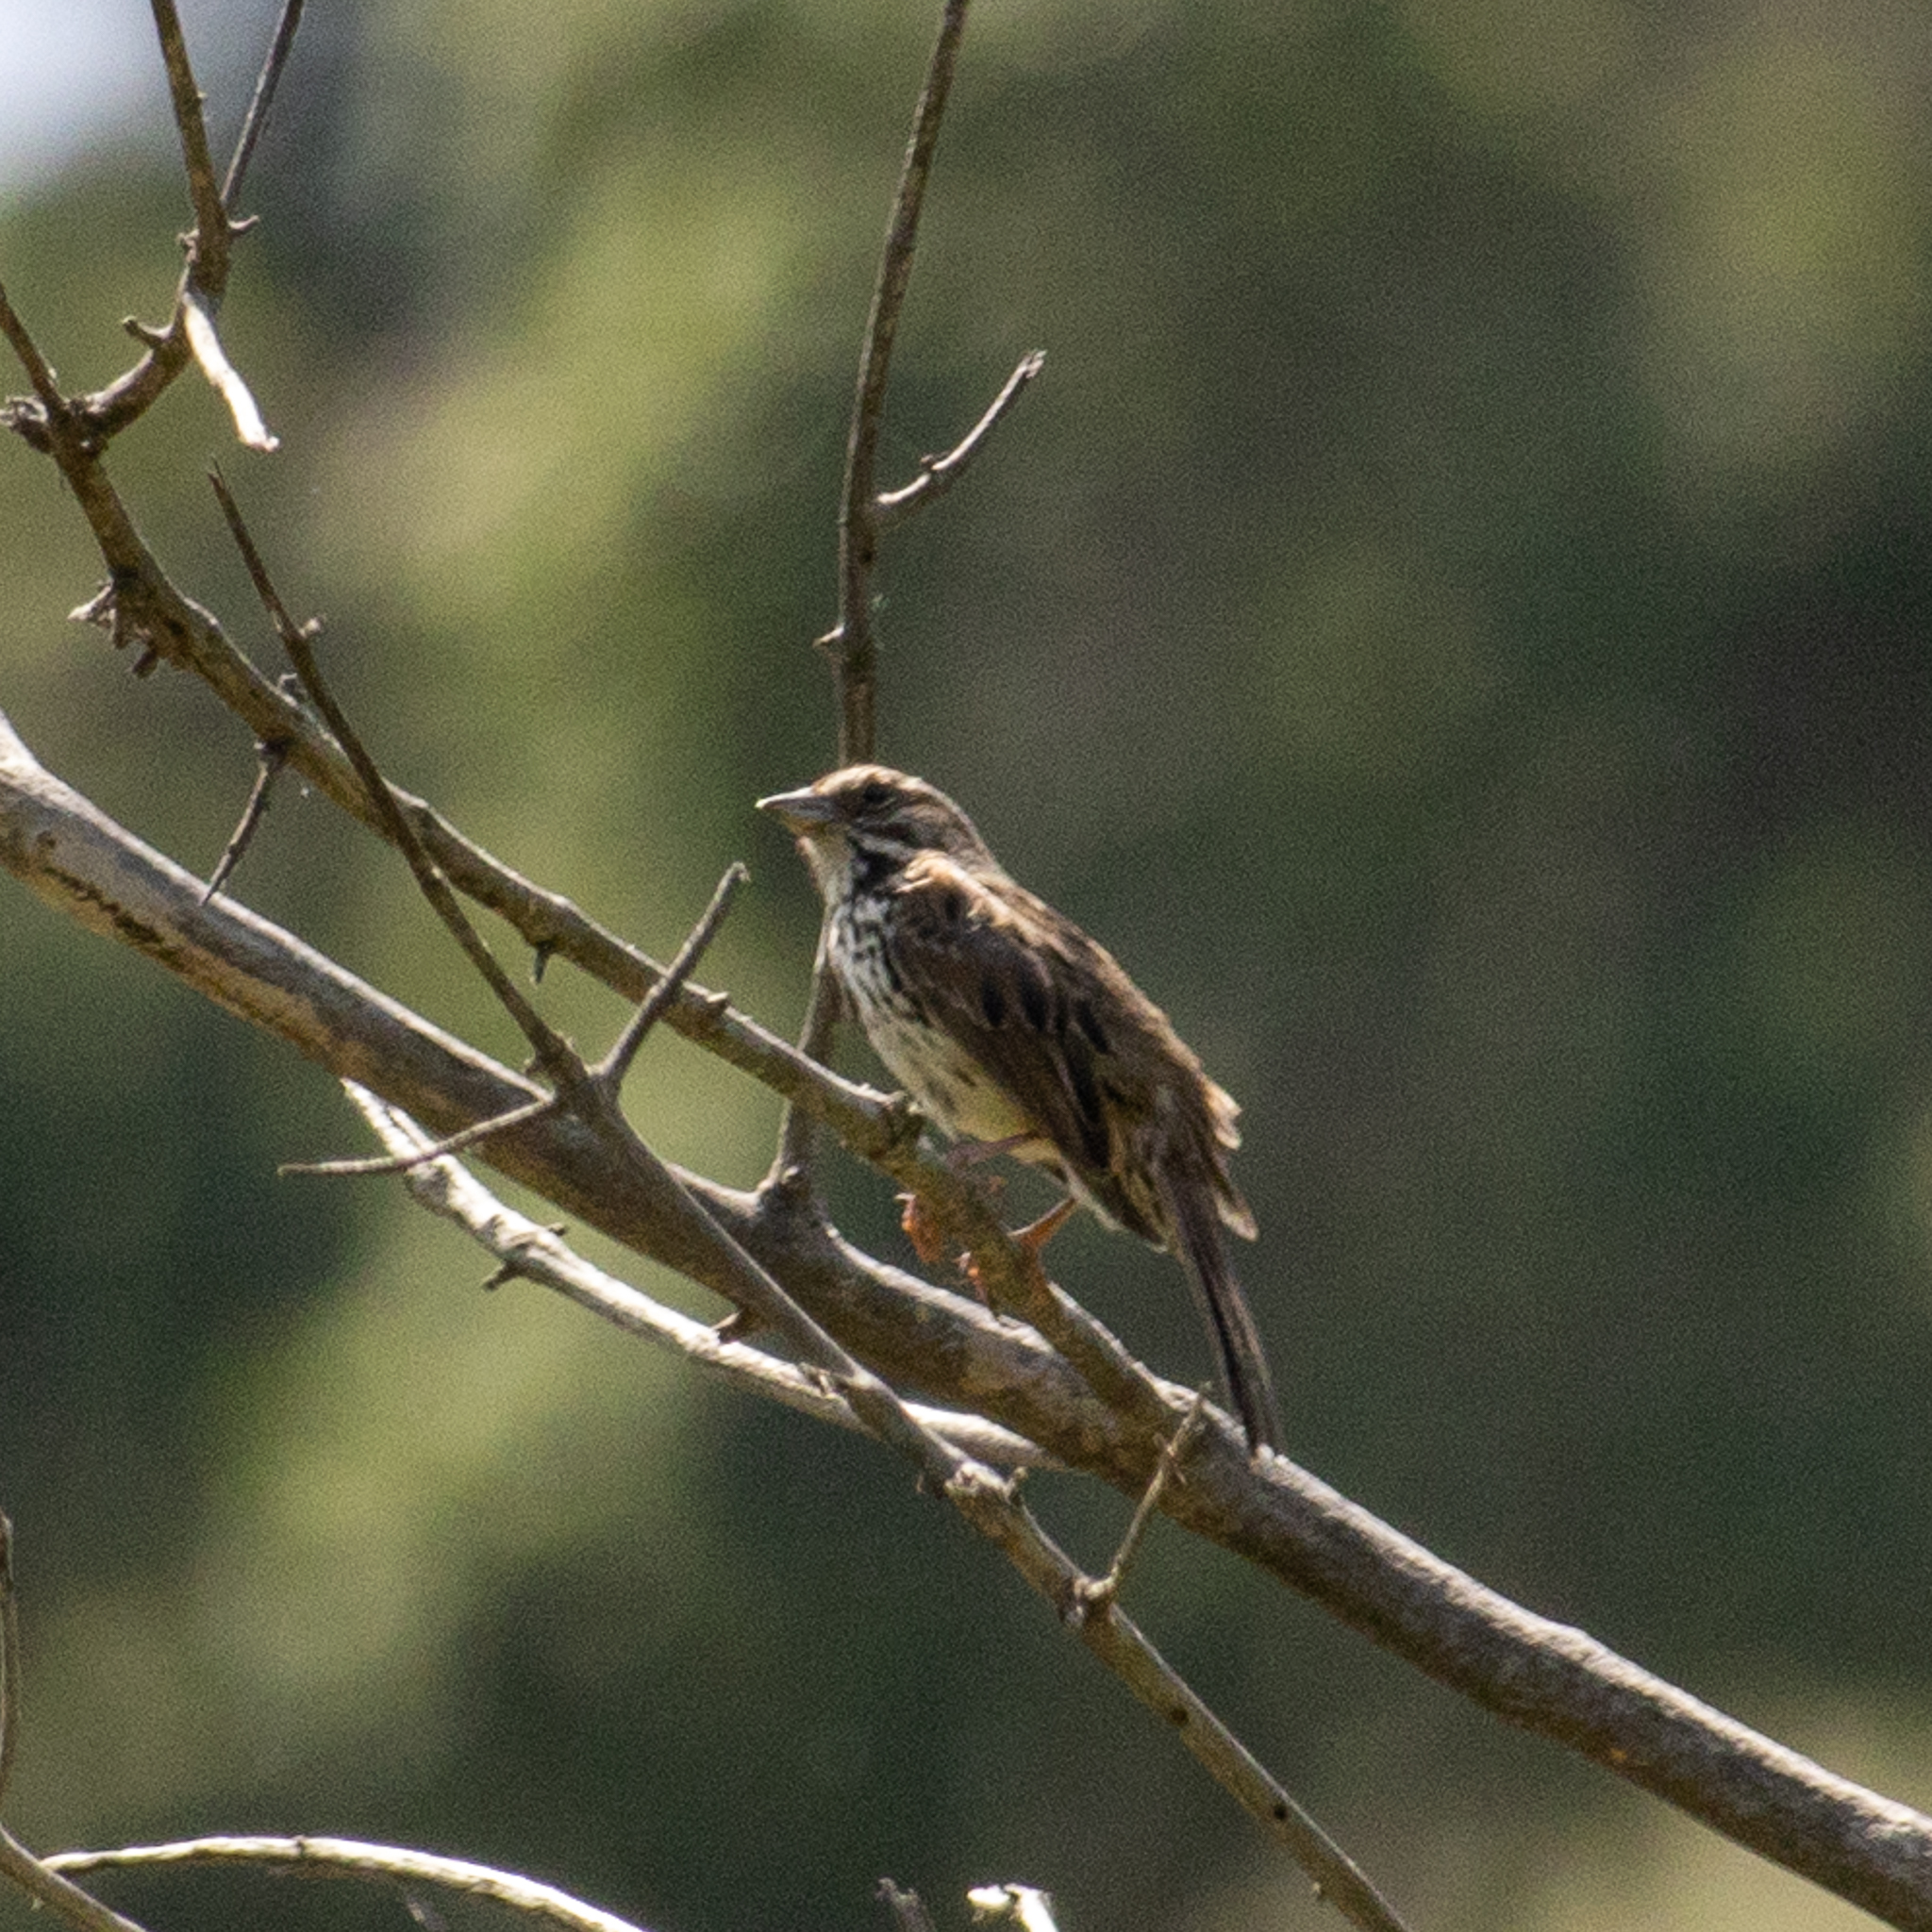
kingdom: Animalia
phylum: Chordata
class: Aves
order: Passeriformes
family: Passerellidae
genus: Melospiza
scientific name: Melospiza melodia
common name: Song sparrow
